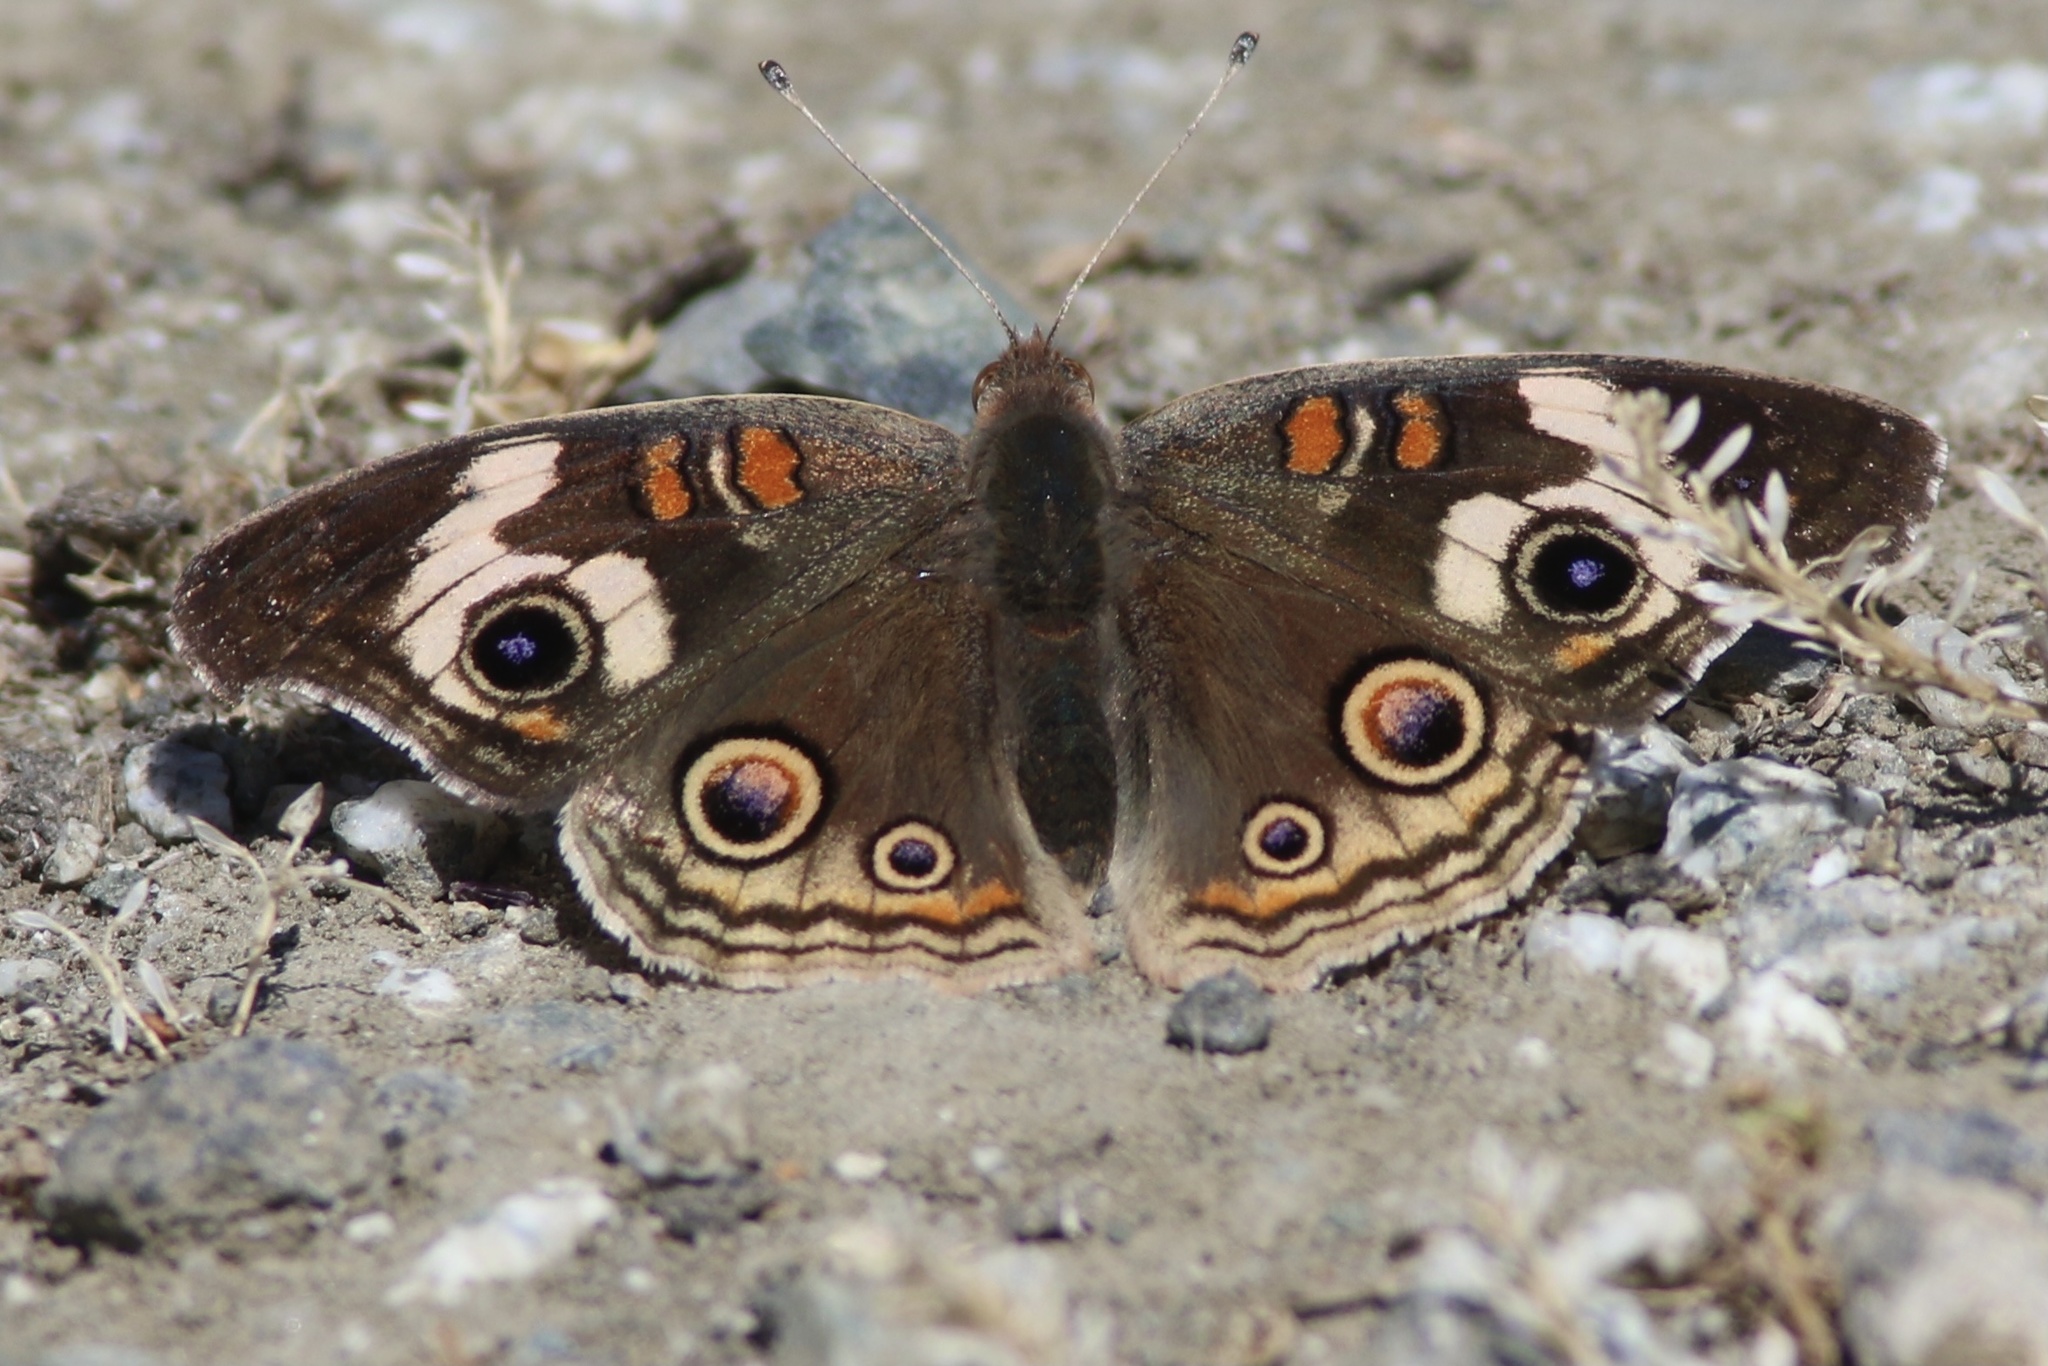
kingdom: Animalia
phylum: Arthropoda
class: Insecta
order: Lepidoptera
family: Nymphalidae
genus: Junonia
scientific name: Junonia grisea
